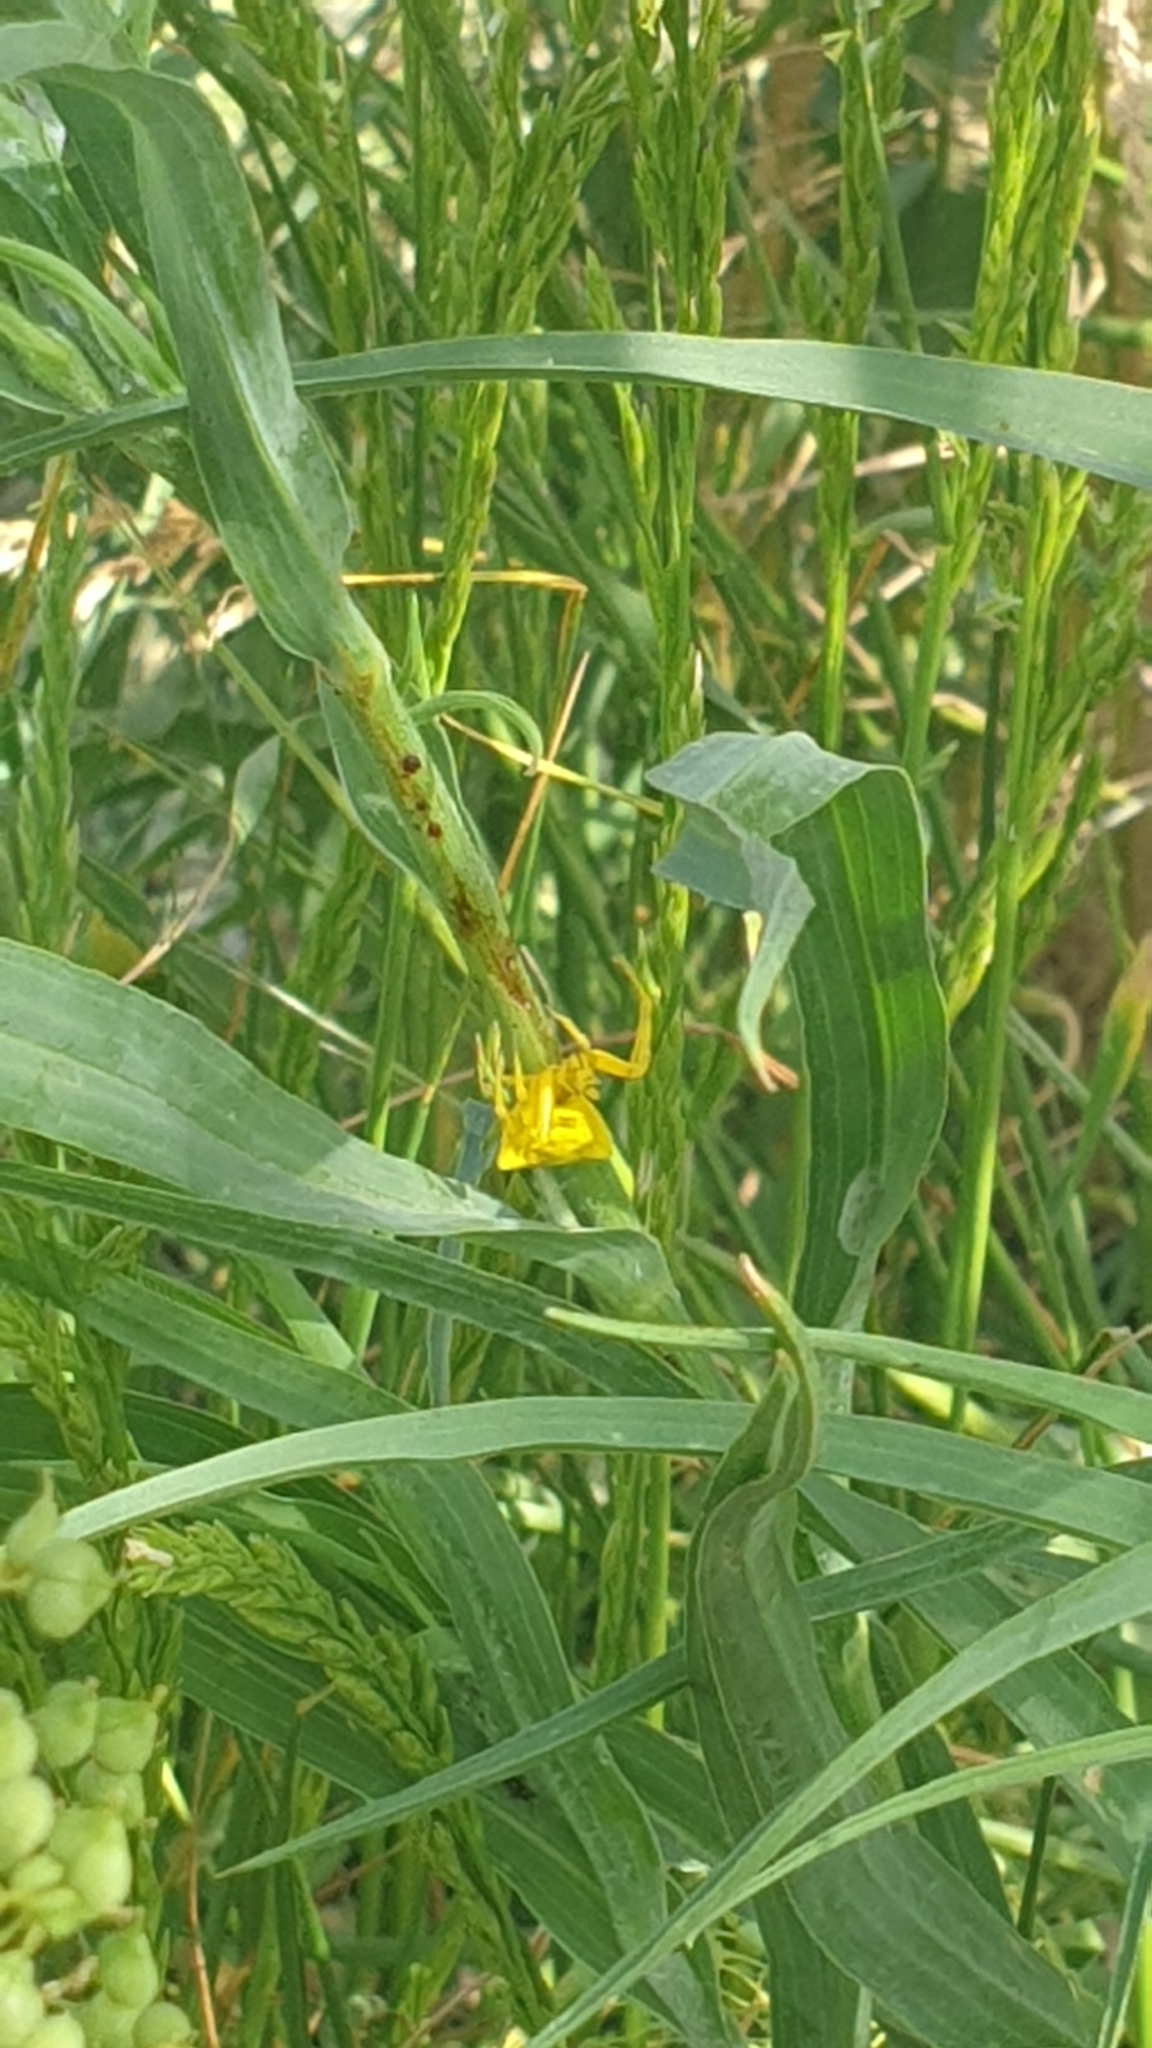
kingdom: Animalia
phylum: Arthropoda
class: Arachnida
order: Araneae
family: Thomisidae
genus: Thomisus
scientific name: Thomisus onustus
